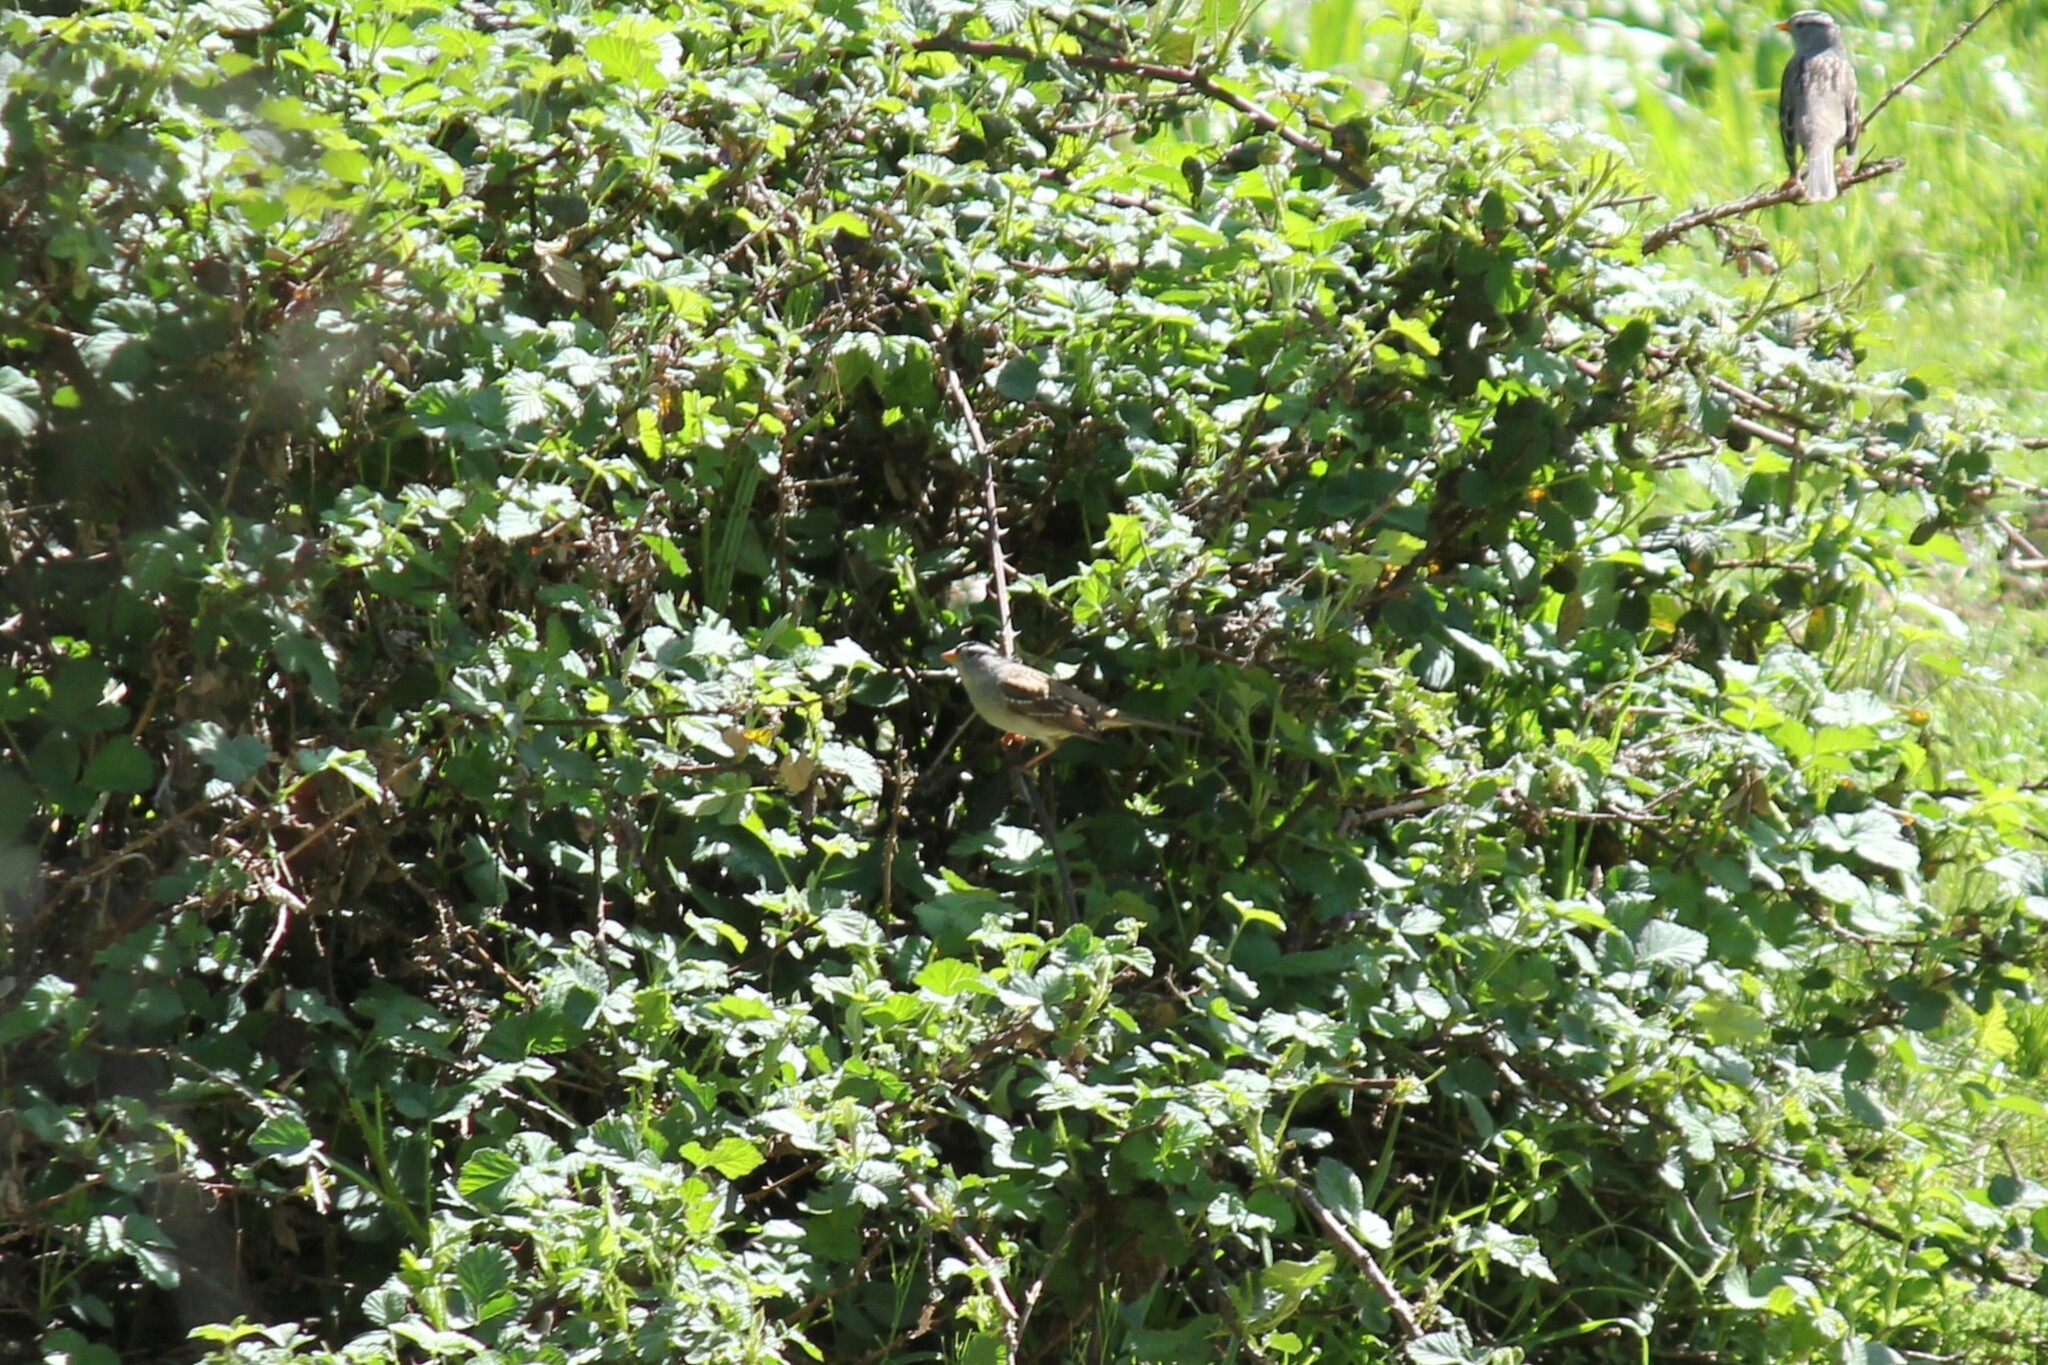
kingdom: Animalia
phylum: Chordata
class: Aves
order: Passeriformes
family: Passerellidae
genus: Zonotrichia
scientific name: Zonotrichia leucophrys
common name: White-crowned sparrow
